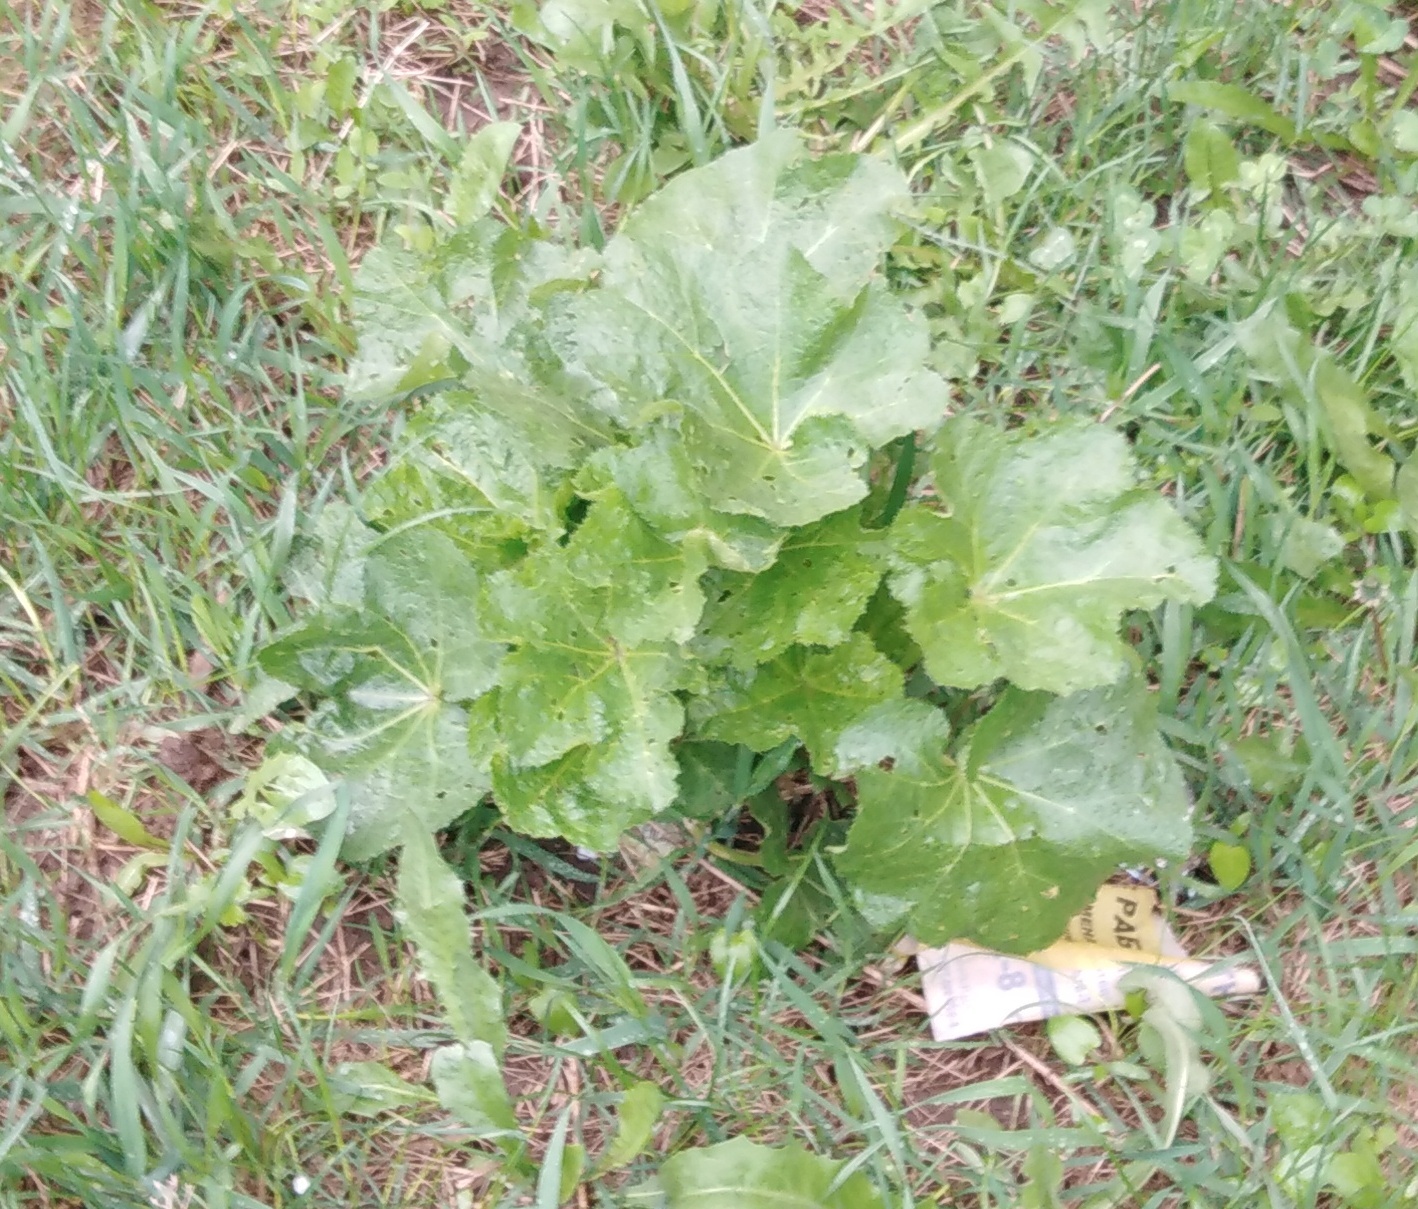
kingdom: Plantae
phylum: Tracheophyta
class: Magnoliopsida
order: Malvales
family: Malvaceae
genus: Alcea
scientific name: Alcea rosea
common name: Hollyhock
